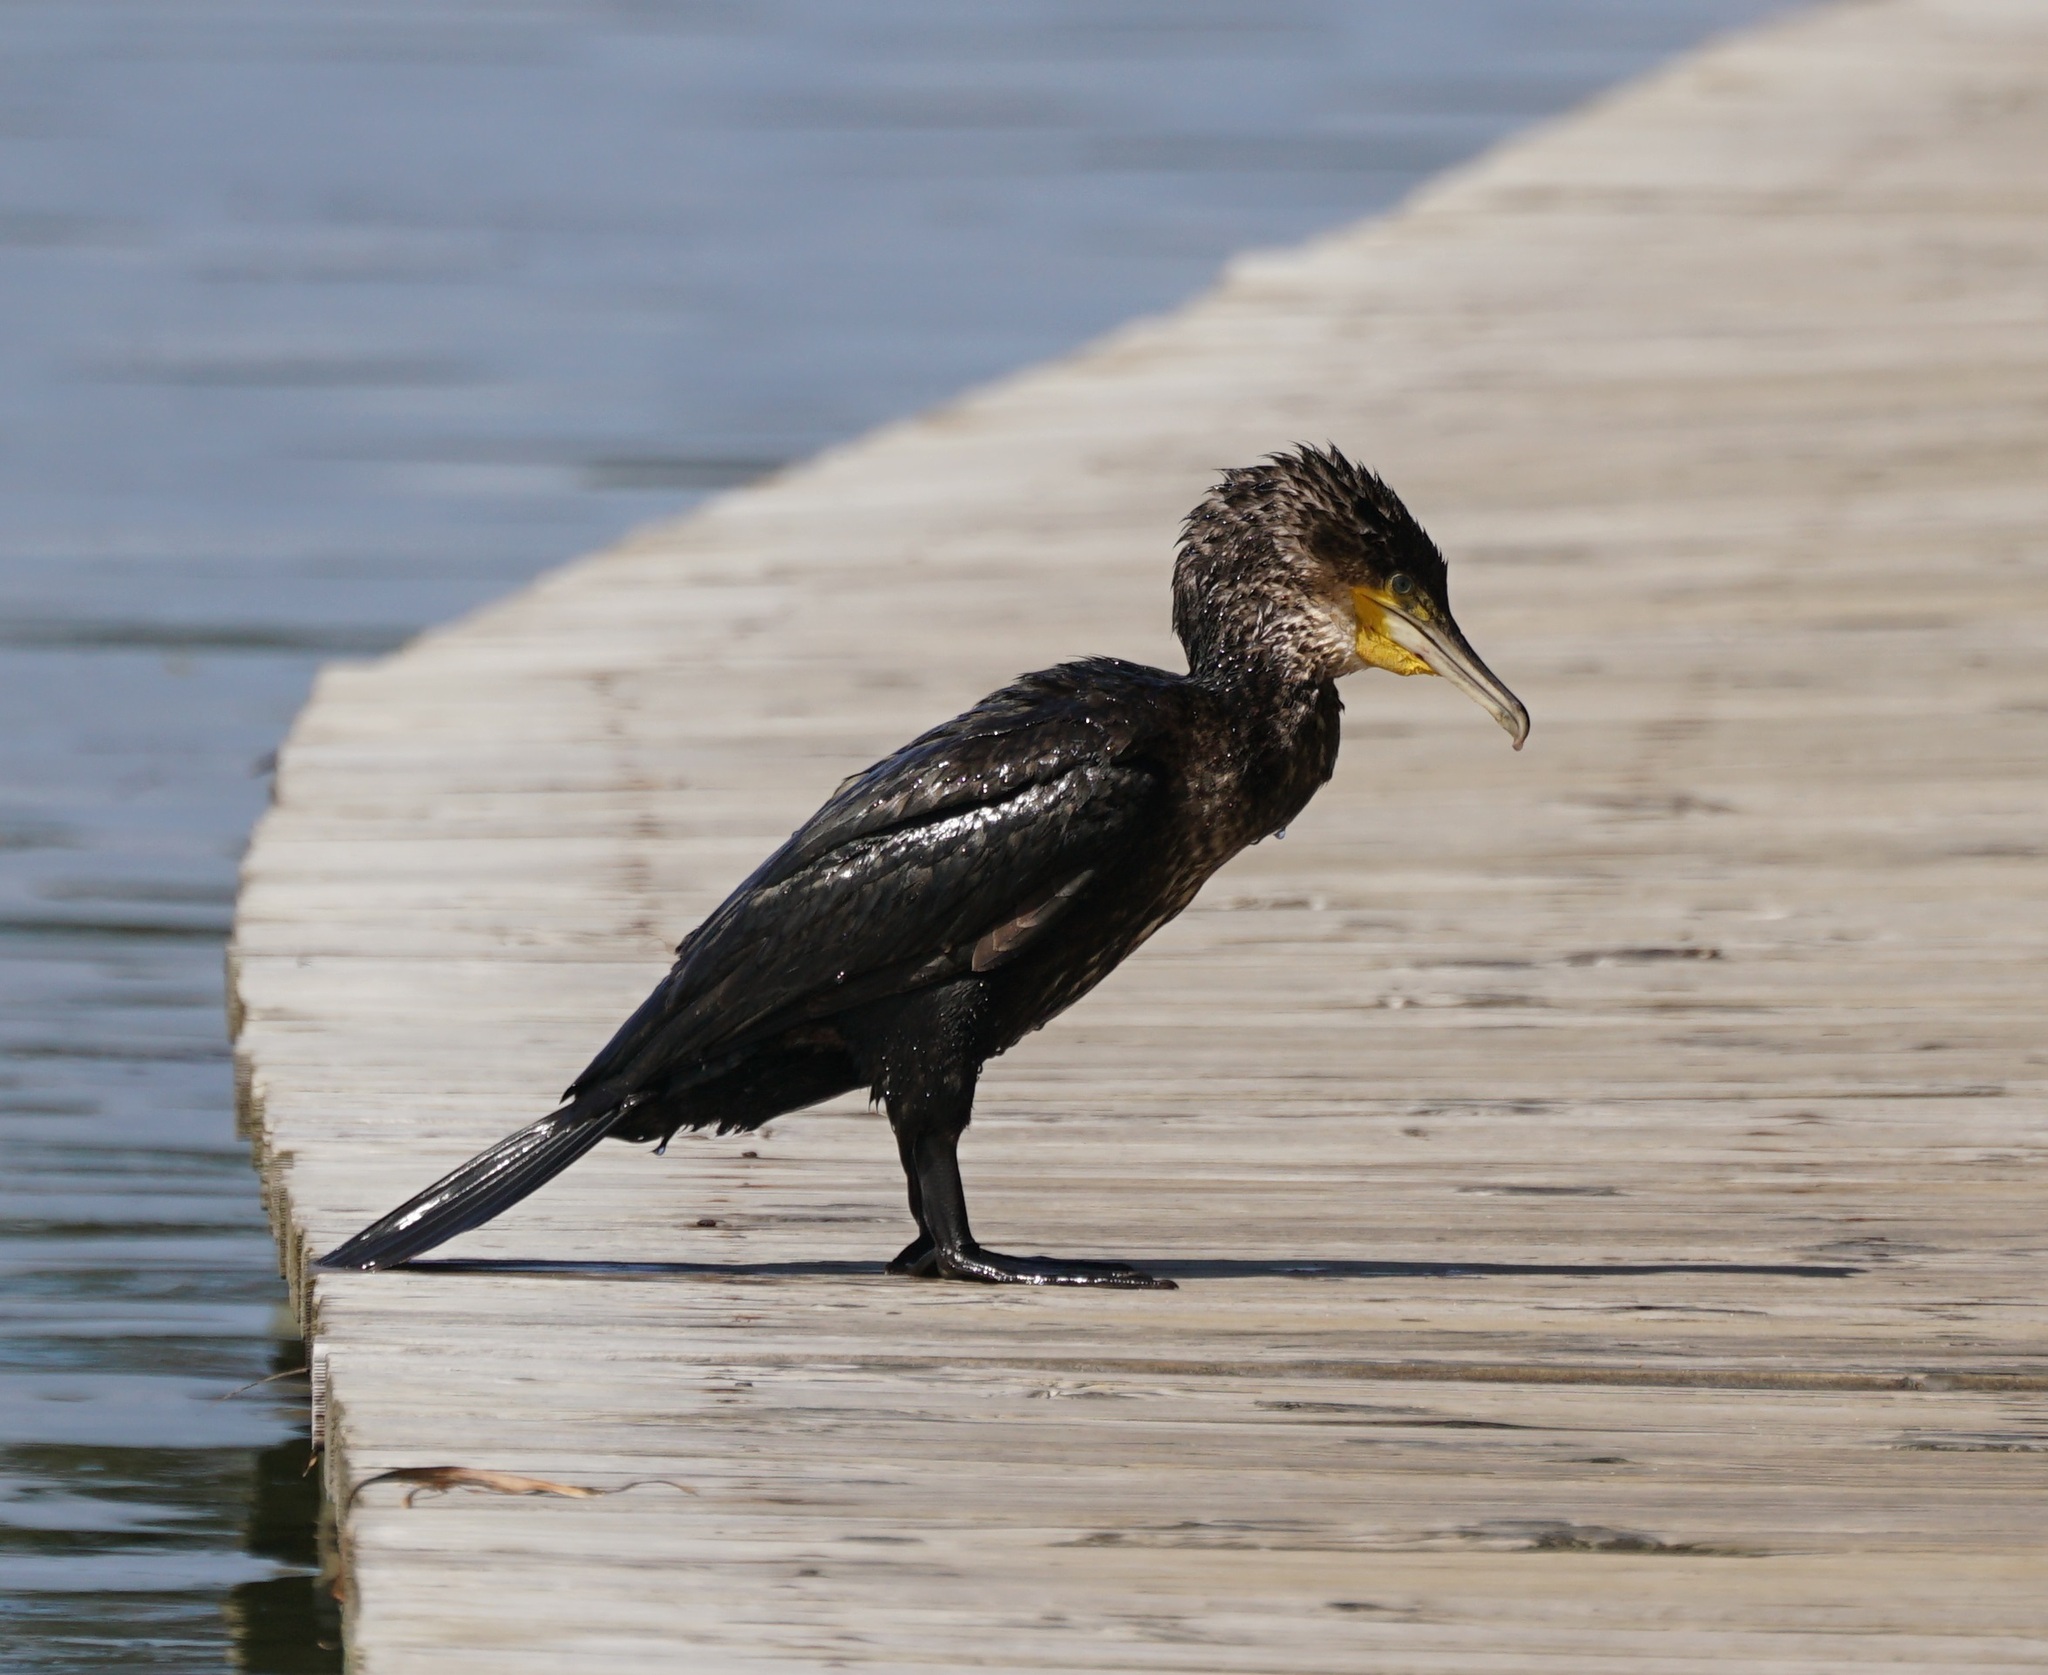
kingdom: Animalia
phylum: Chordata
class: Aves
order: Suliformes
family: Phalacrocoracidae
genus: Phalacrocorax
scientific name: Phalacrocorax carbo
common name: Great cormorant
